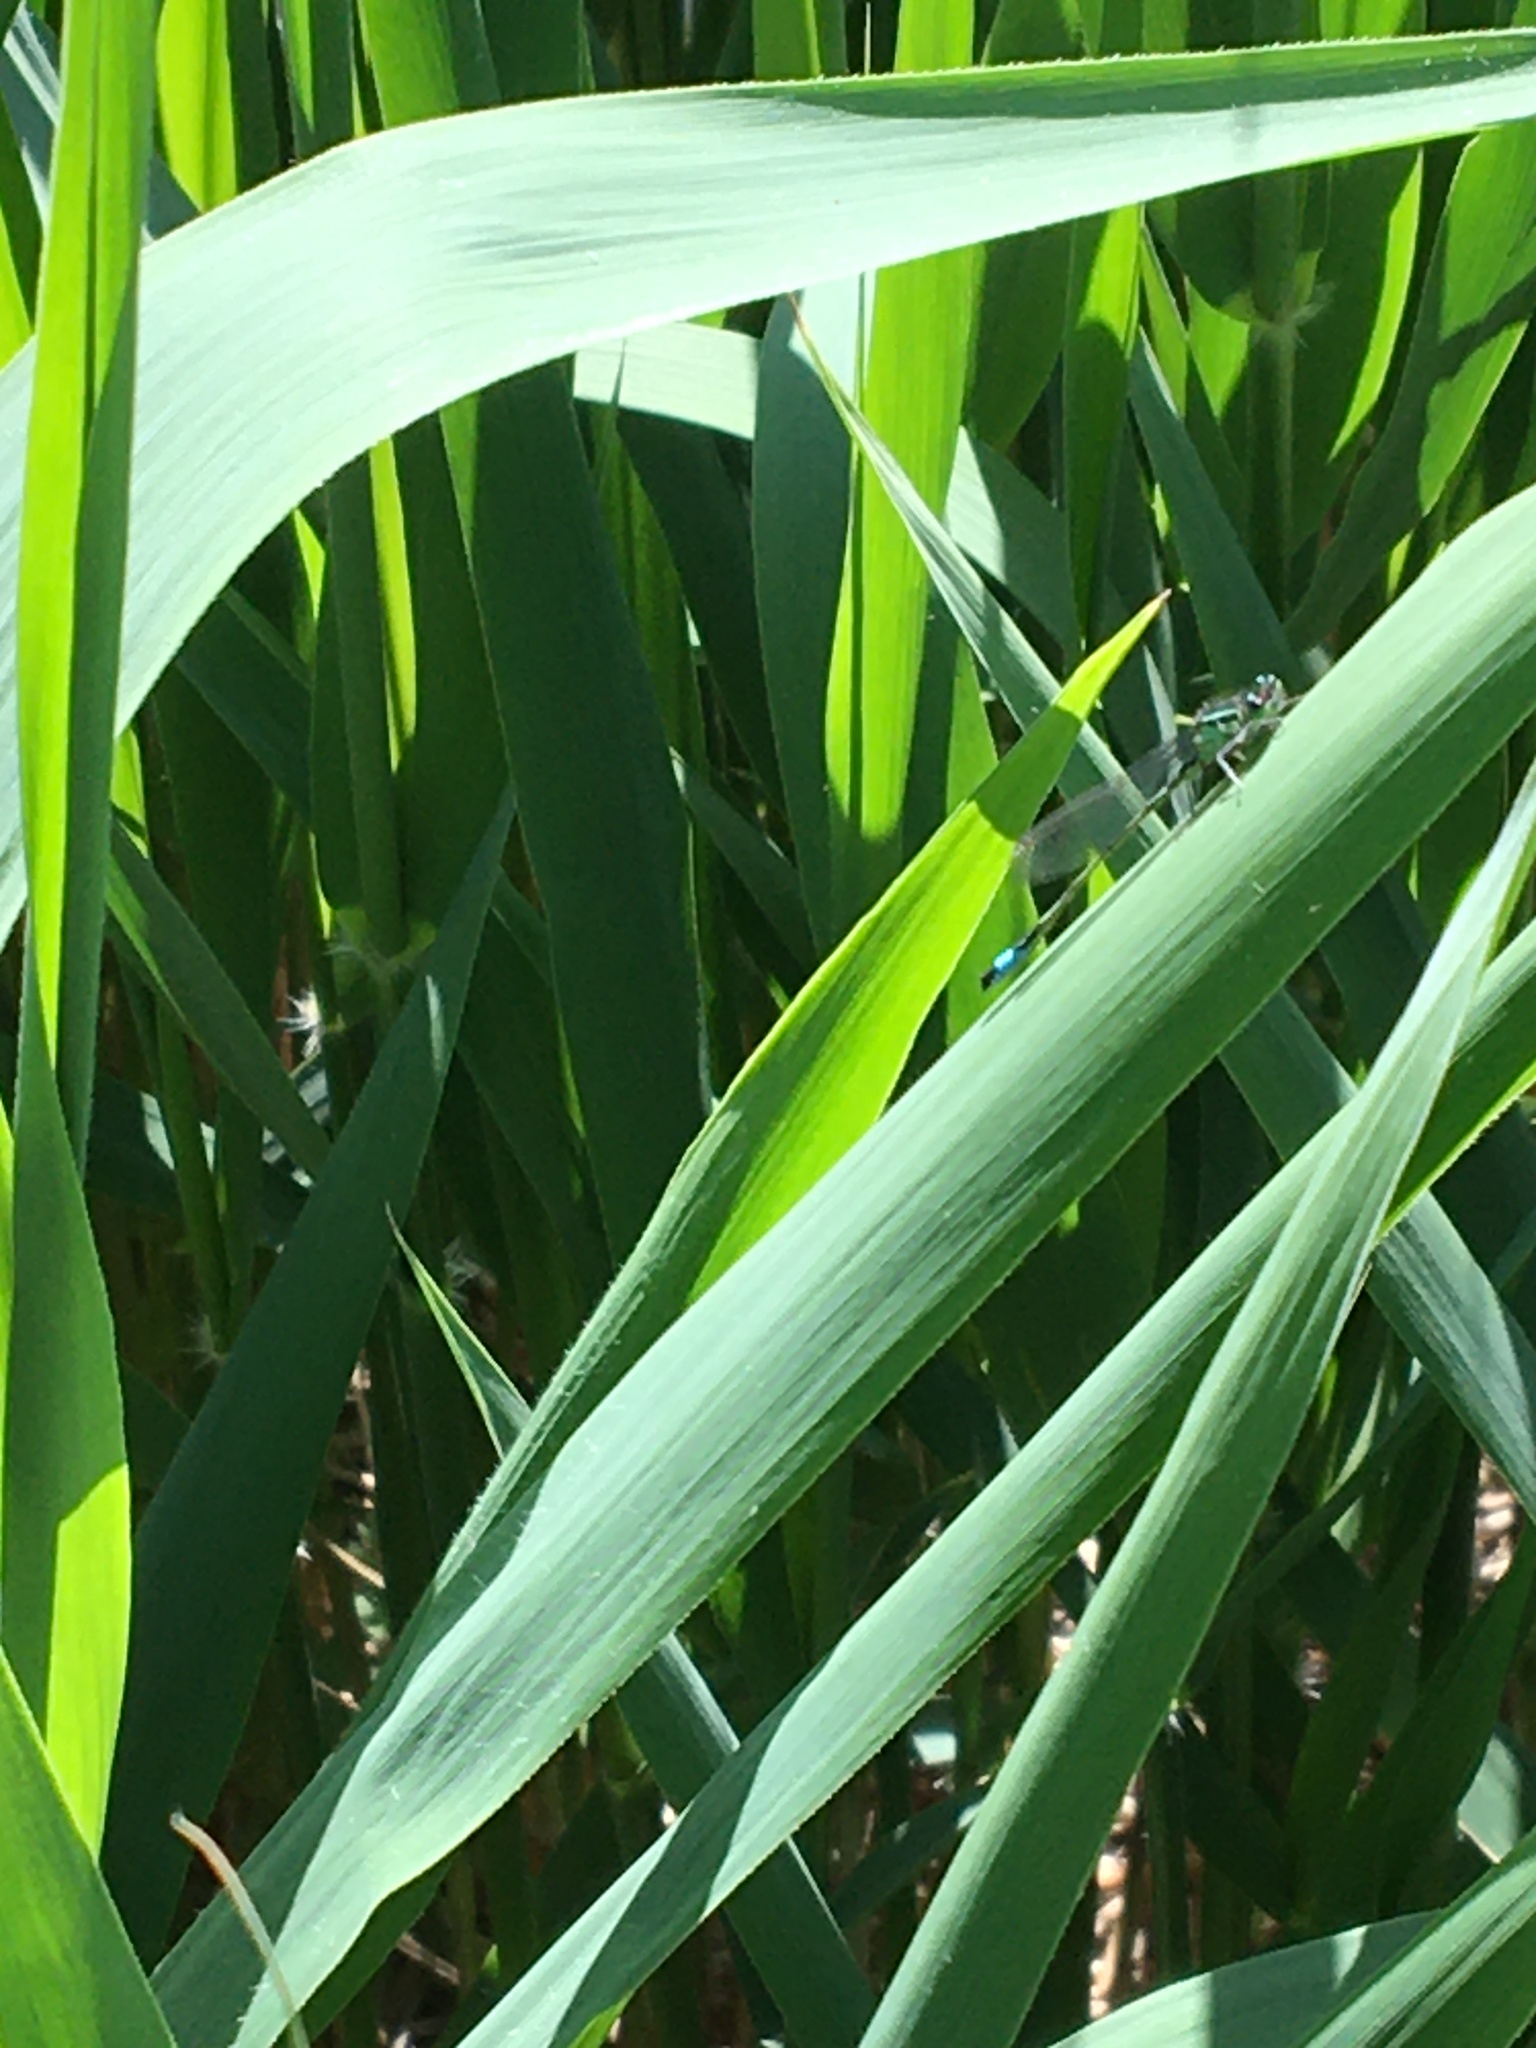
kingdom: Animalia
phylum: Arthropoda
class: Insecta
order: Odonata
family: Coenagrionidae
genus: Ischnura
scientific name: Ischnura elegans
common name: Blue-tailed damselfly
